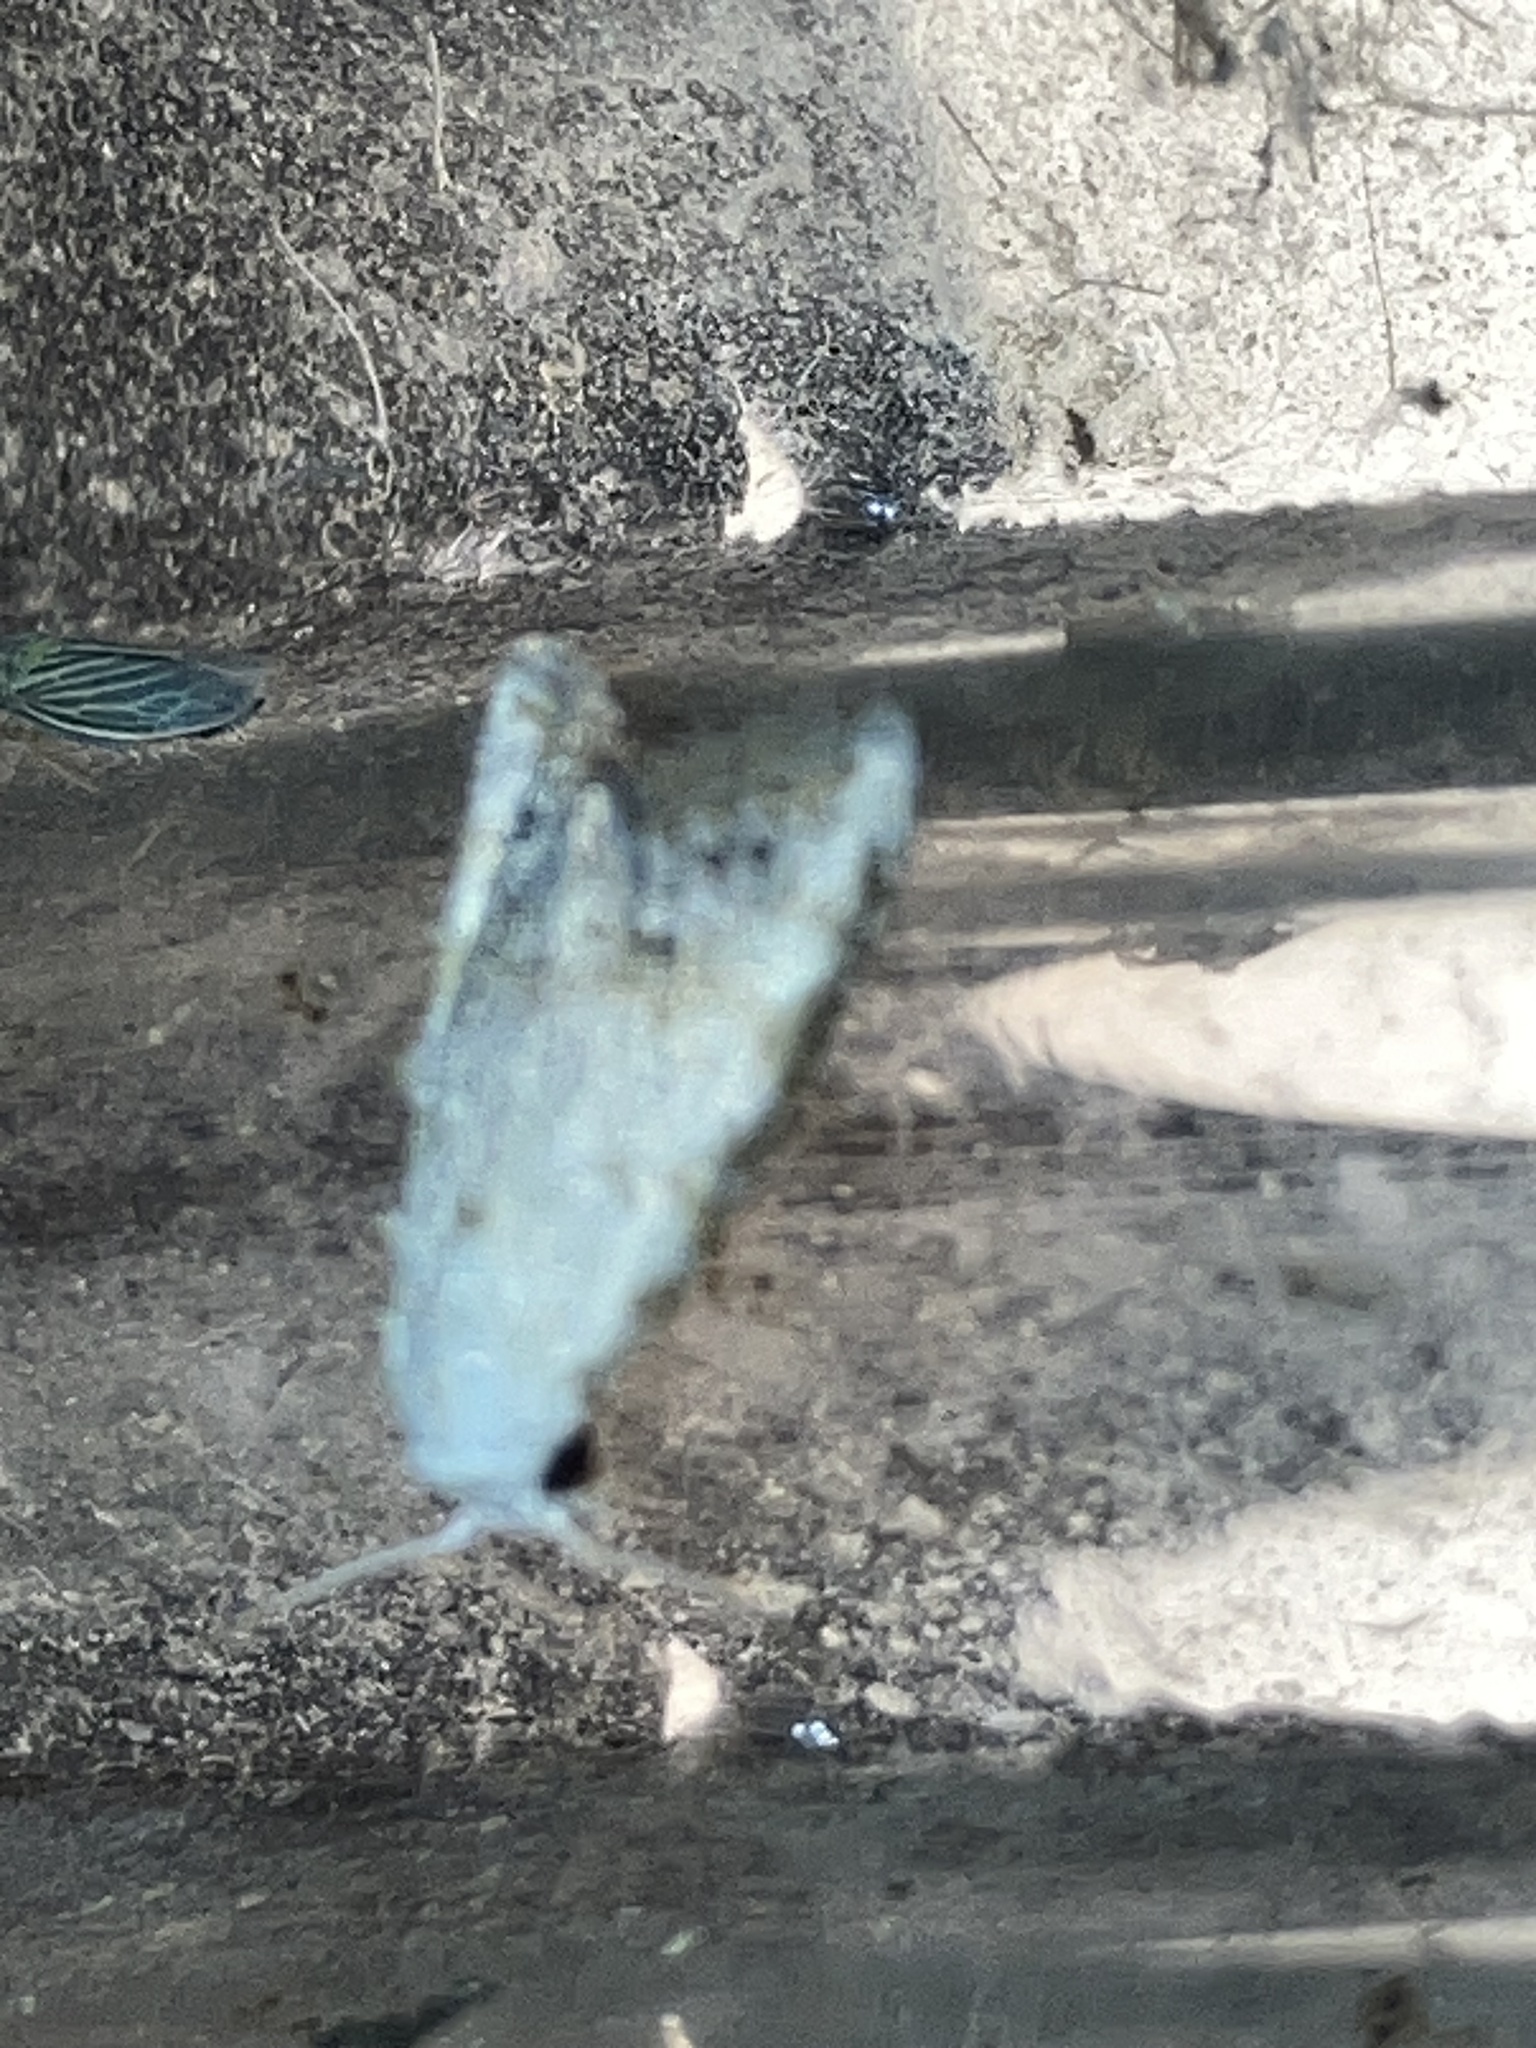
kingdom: Animalia
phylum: Arthropoda
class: Insecta
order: Lepidoptera
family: Nolidae
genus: Nola
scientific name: Nola cereella
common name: Sorghum webworm moth
